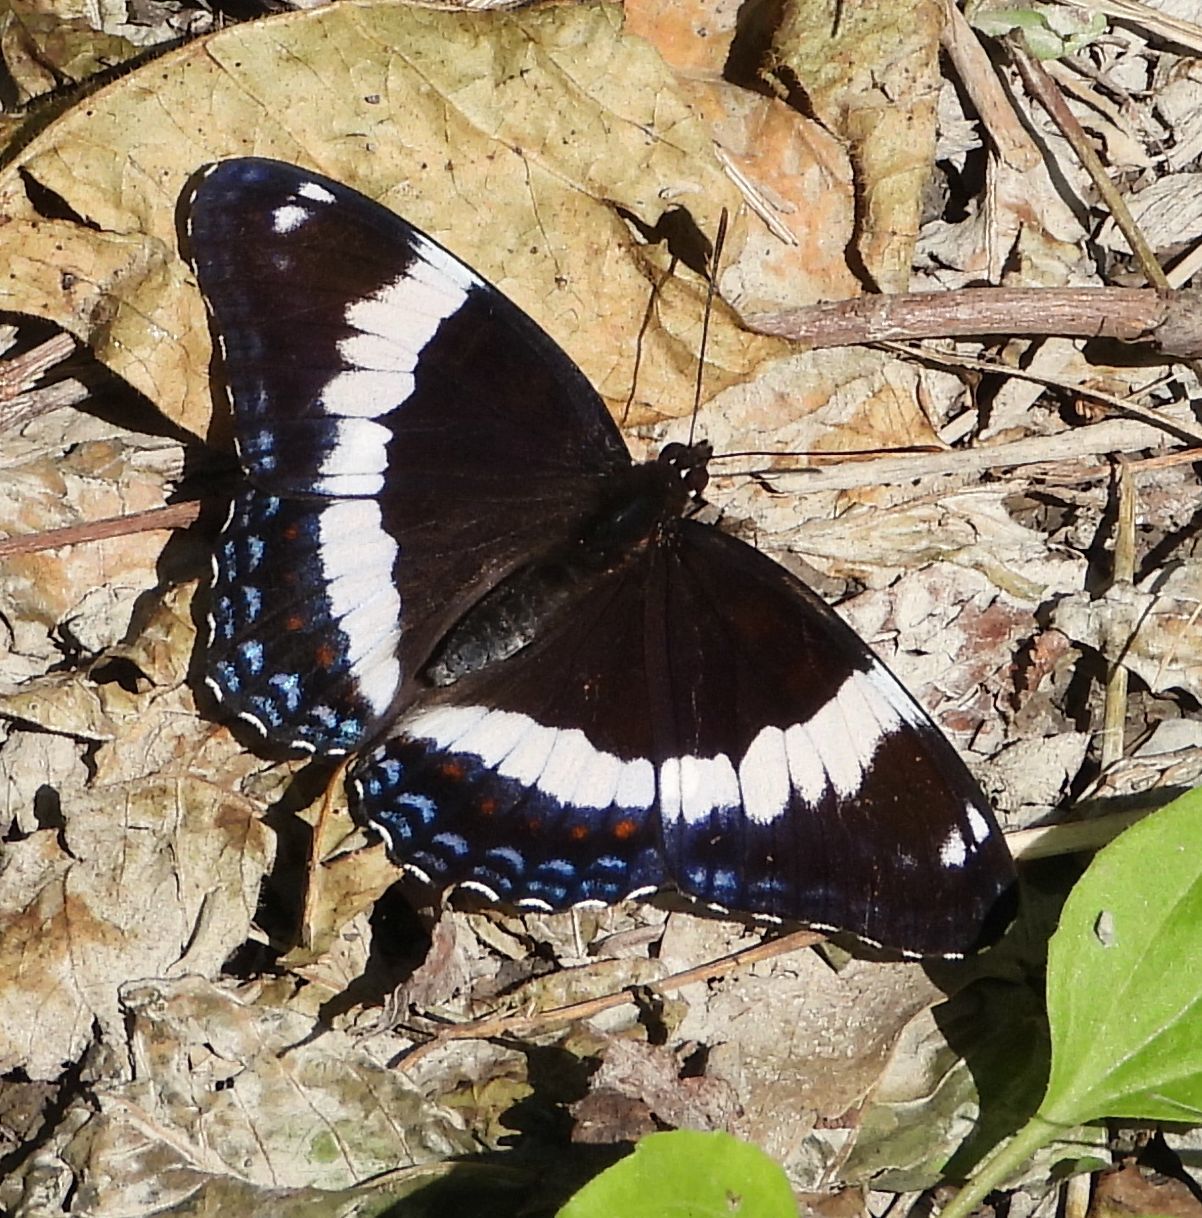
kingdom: Animalia
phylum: Arthropoda
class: Insecta
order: Lepidoptera
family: Nymphalidae
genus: Limenitis
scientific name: Limenitis arthemis
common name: Red-spotted admiral
